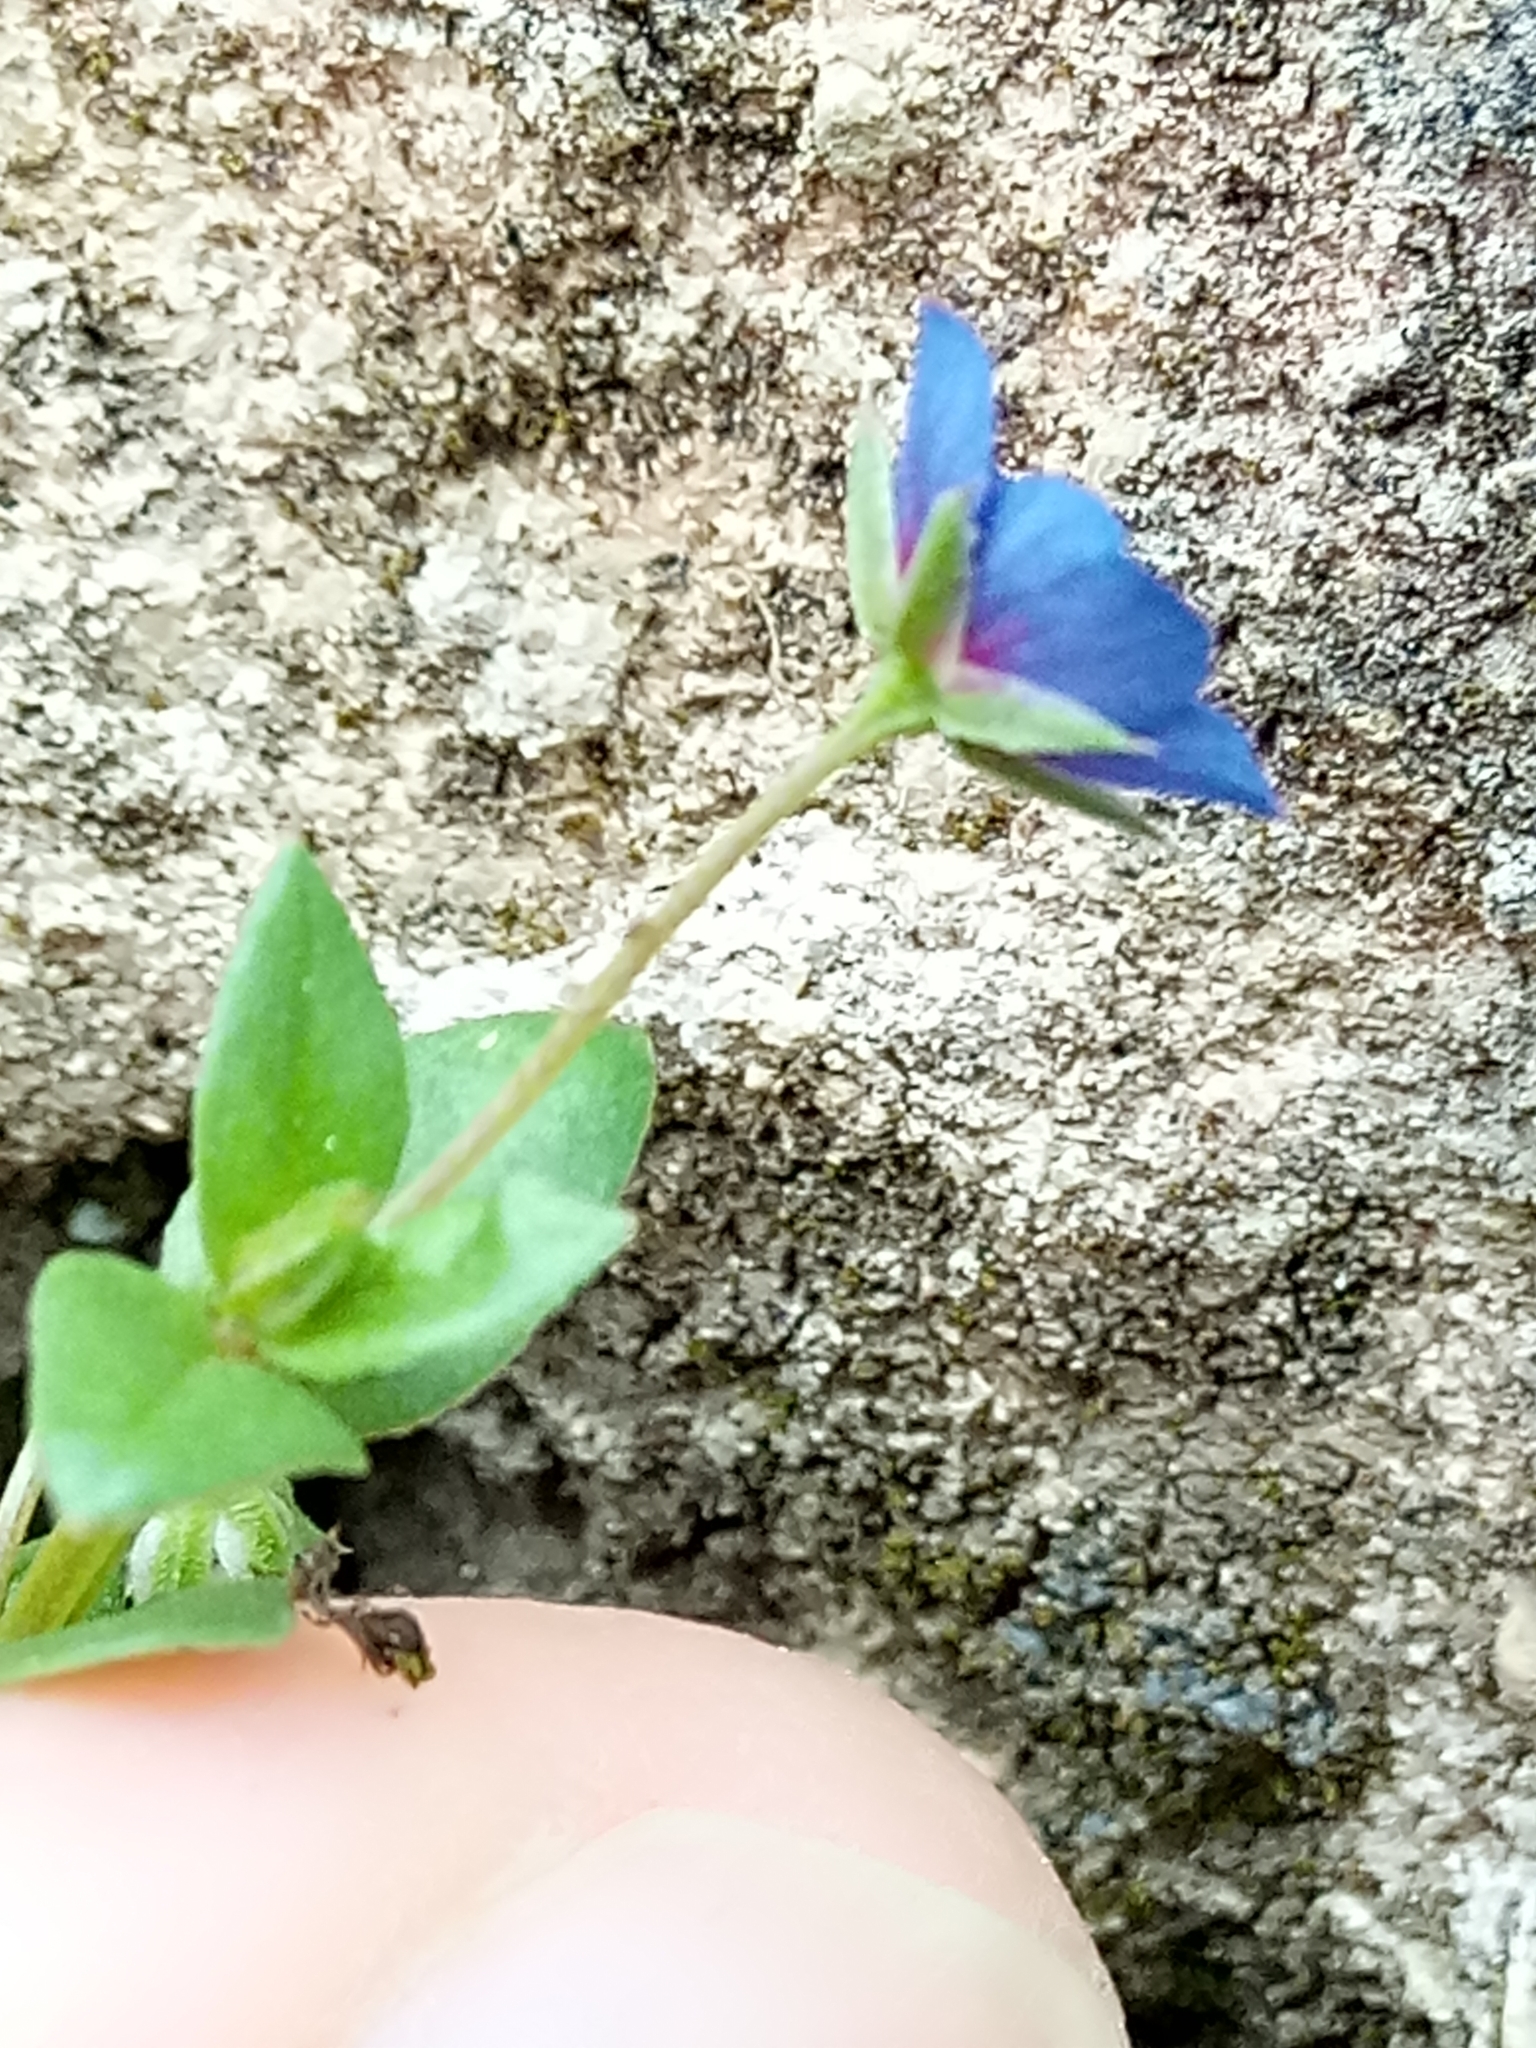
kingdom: Plantae
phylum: Tracheophyta
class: Magnoliopsida
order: Ericales
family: Primulaceae
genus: Lysimachia
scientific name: Lysimachia loeflingii
